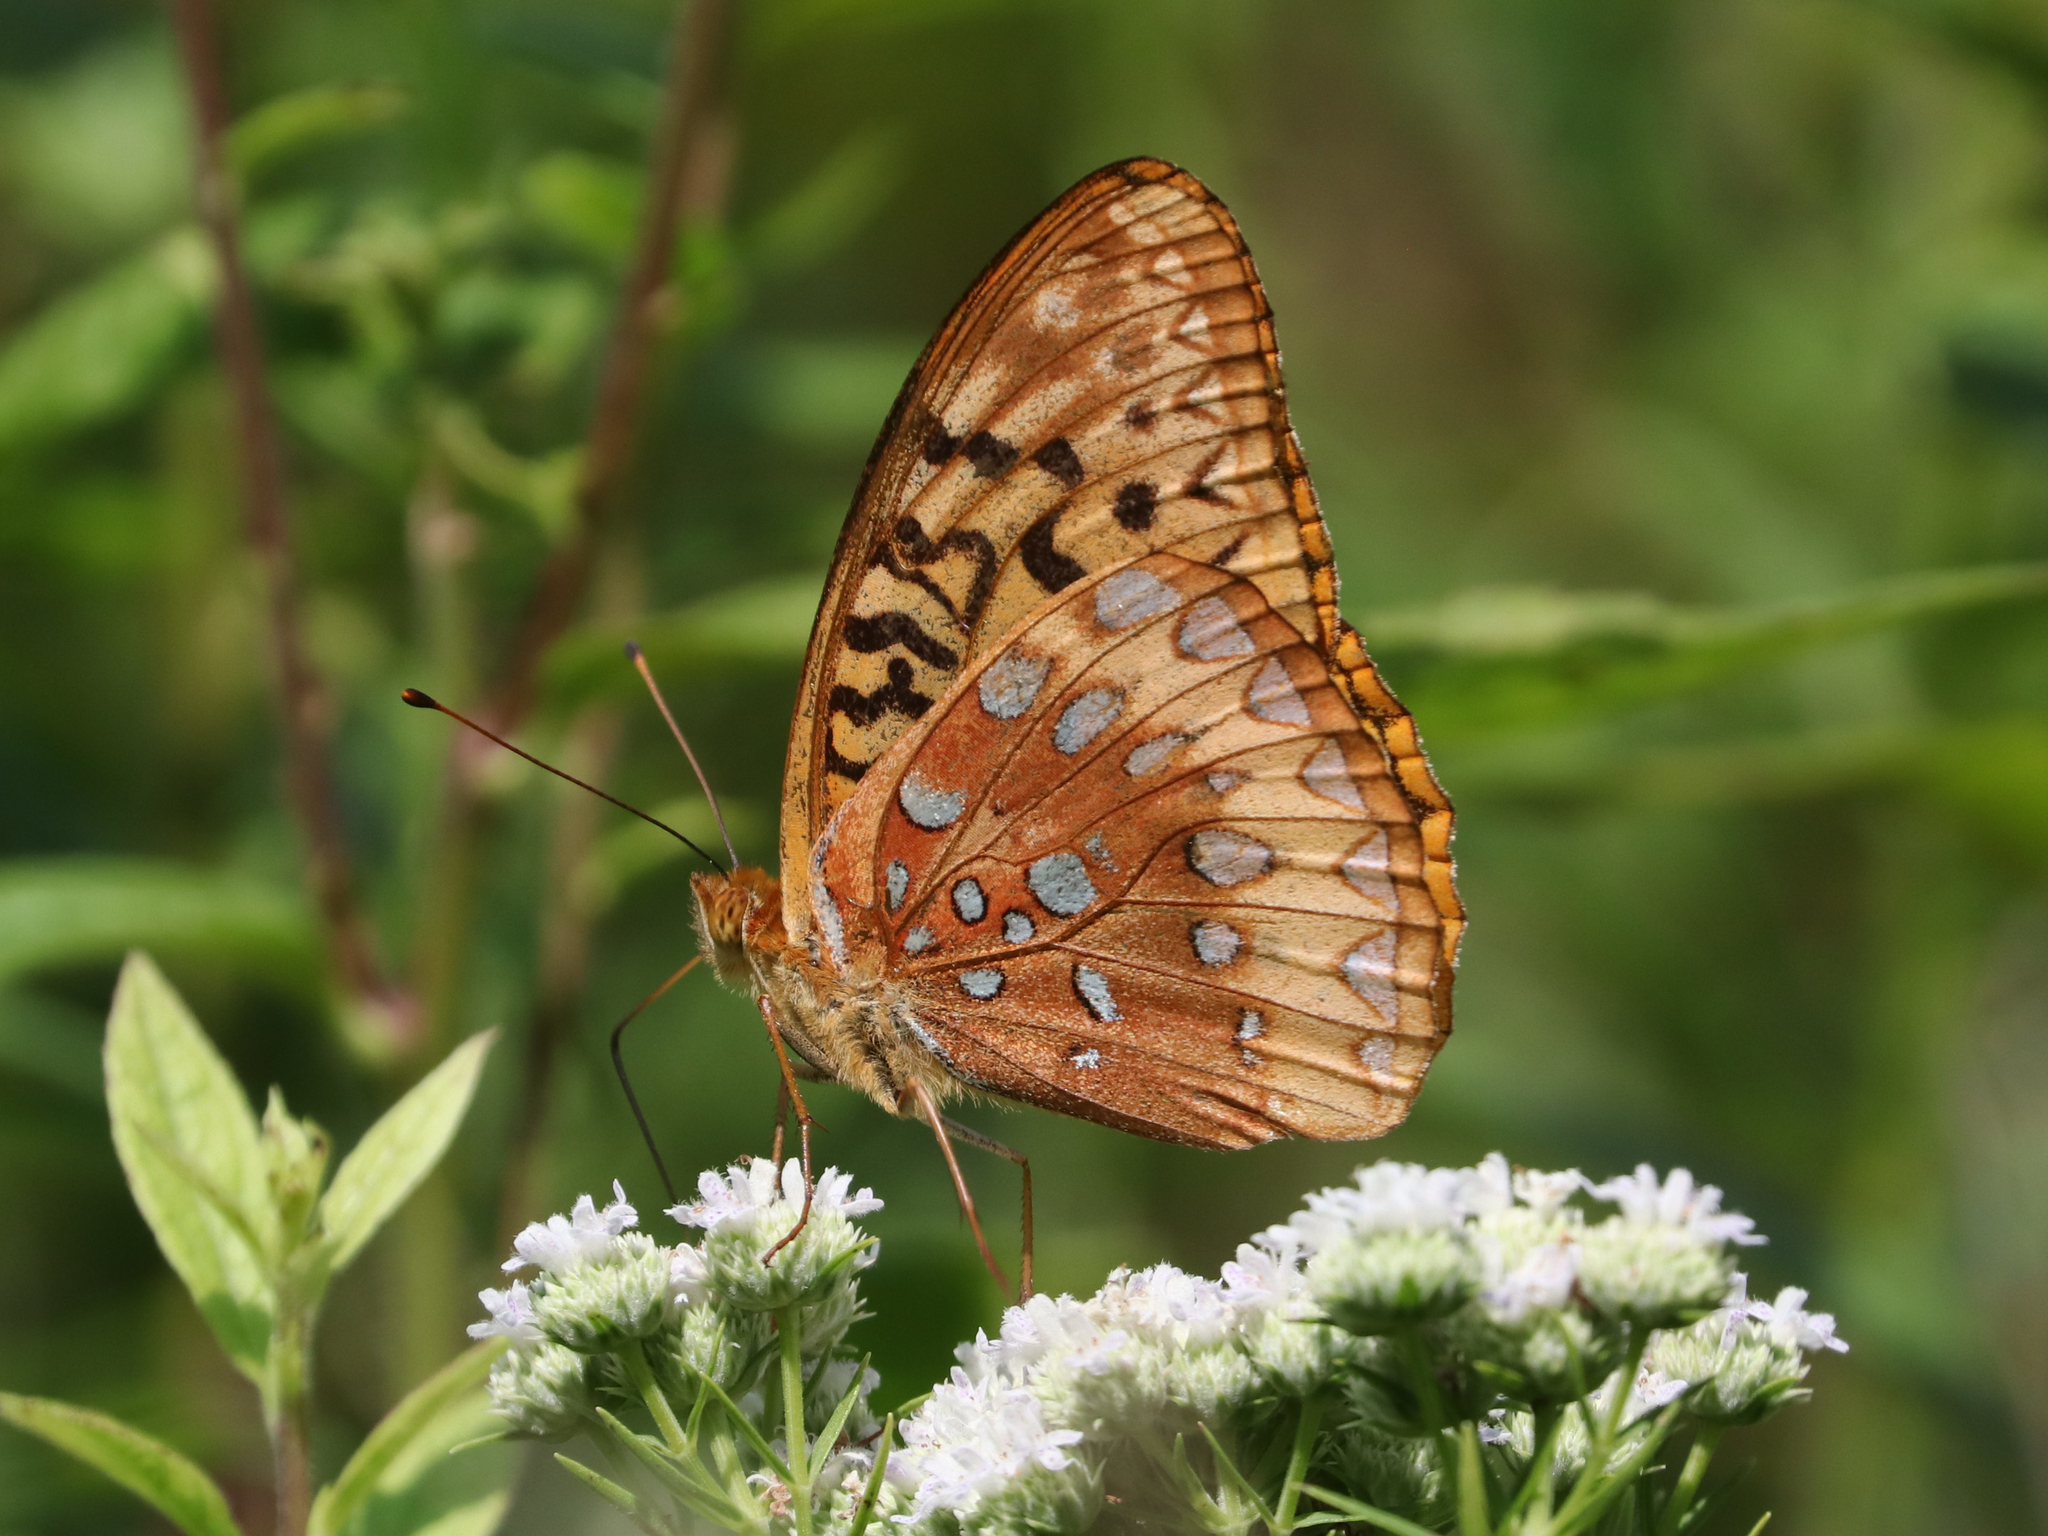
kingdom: Animalia
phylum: Arthropoda
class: Insecta
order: Lepidoptera
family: Nymphalidae
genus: Speyeria
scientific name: Speyeria cybele
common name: Great spangled fritillary
